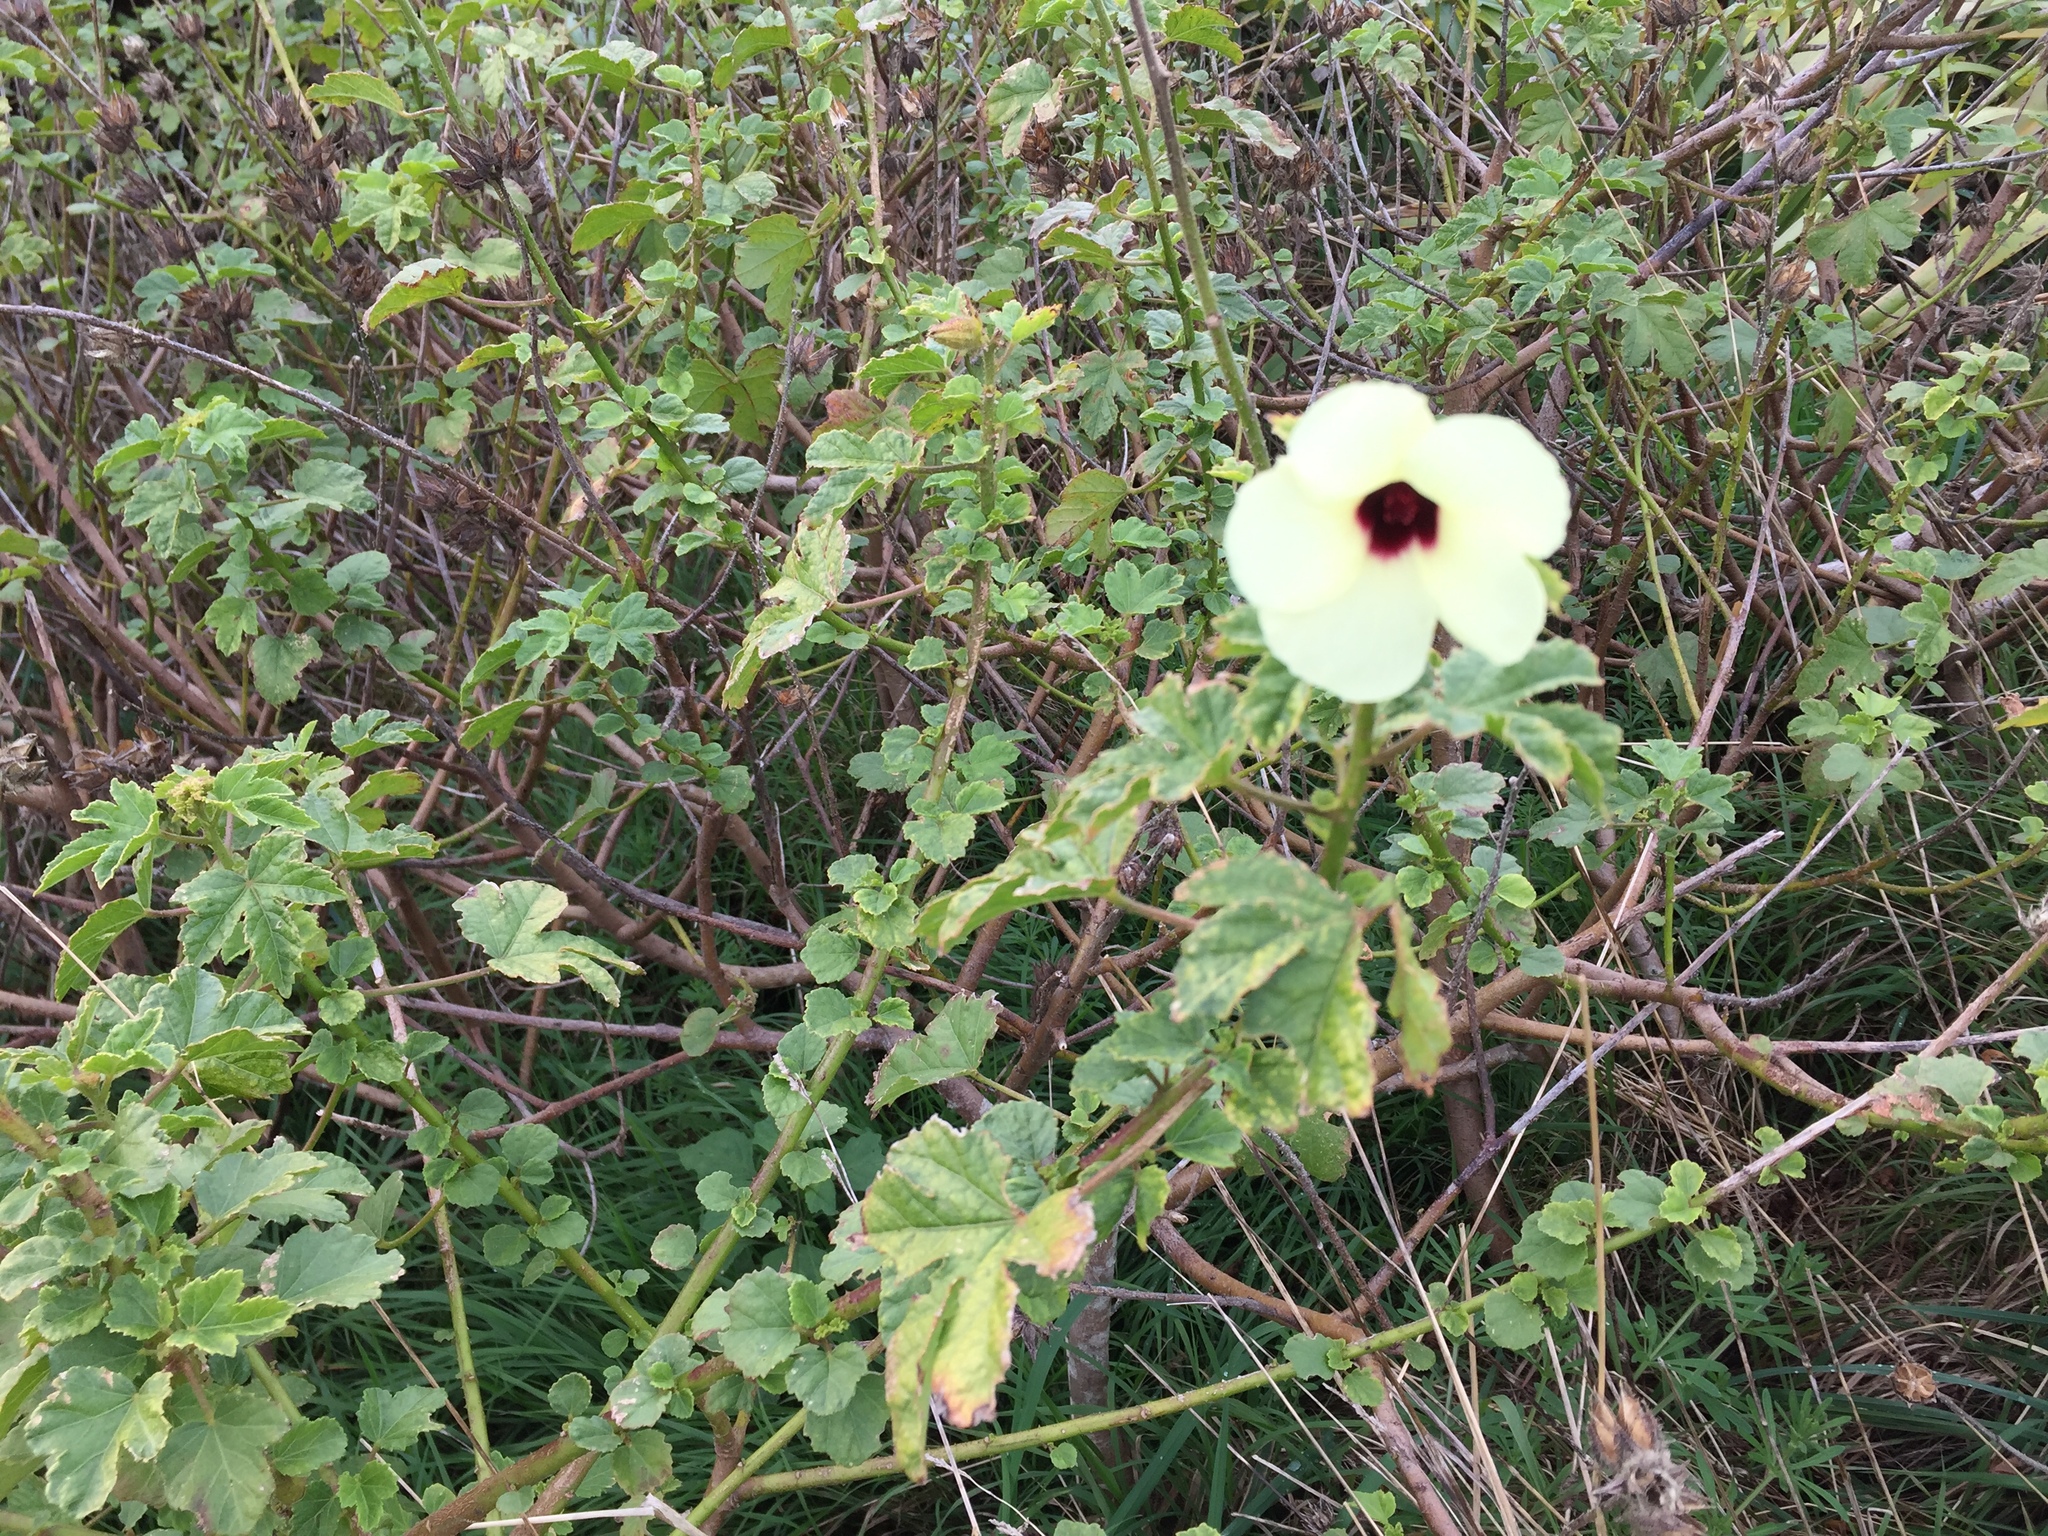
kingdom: Plantae
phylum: Tracheophyta
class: Magnoliopsida
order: Malvales
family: Malvaceae
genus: Hibiscus
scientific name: Hibiscus diversifolius
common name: Cape hibiscus
